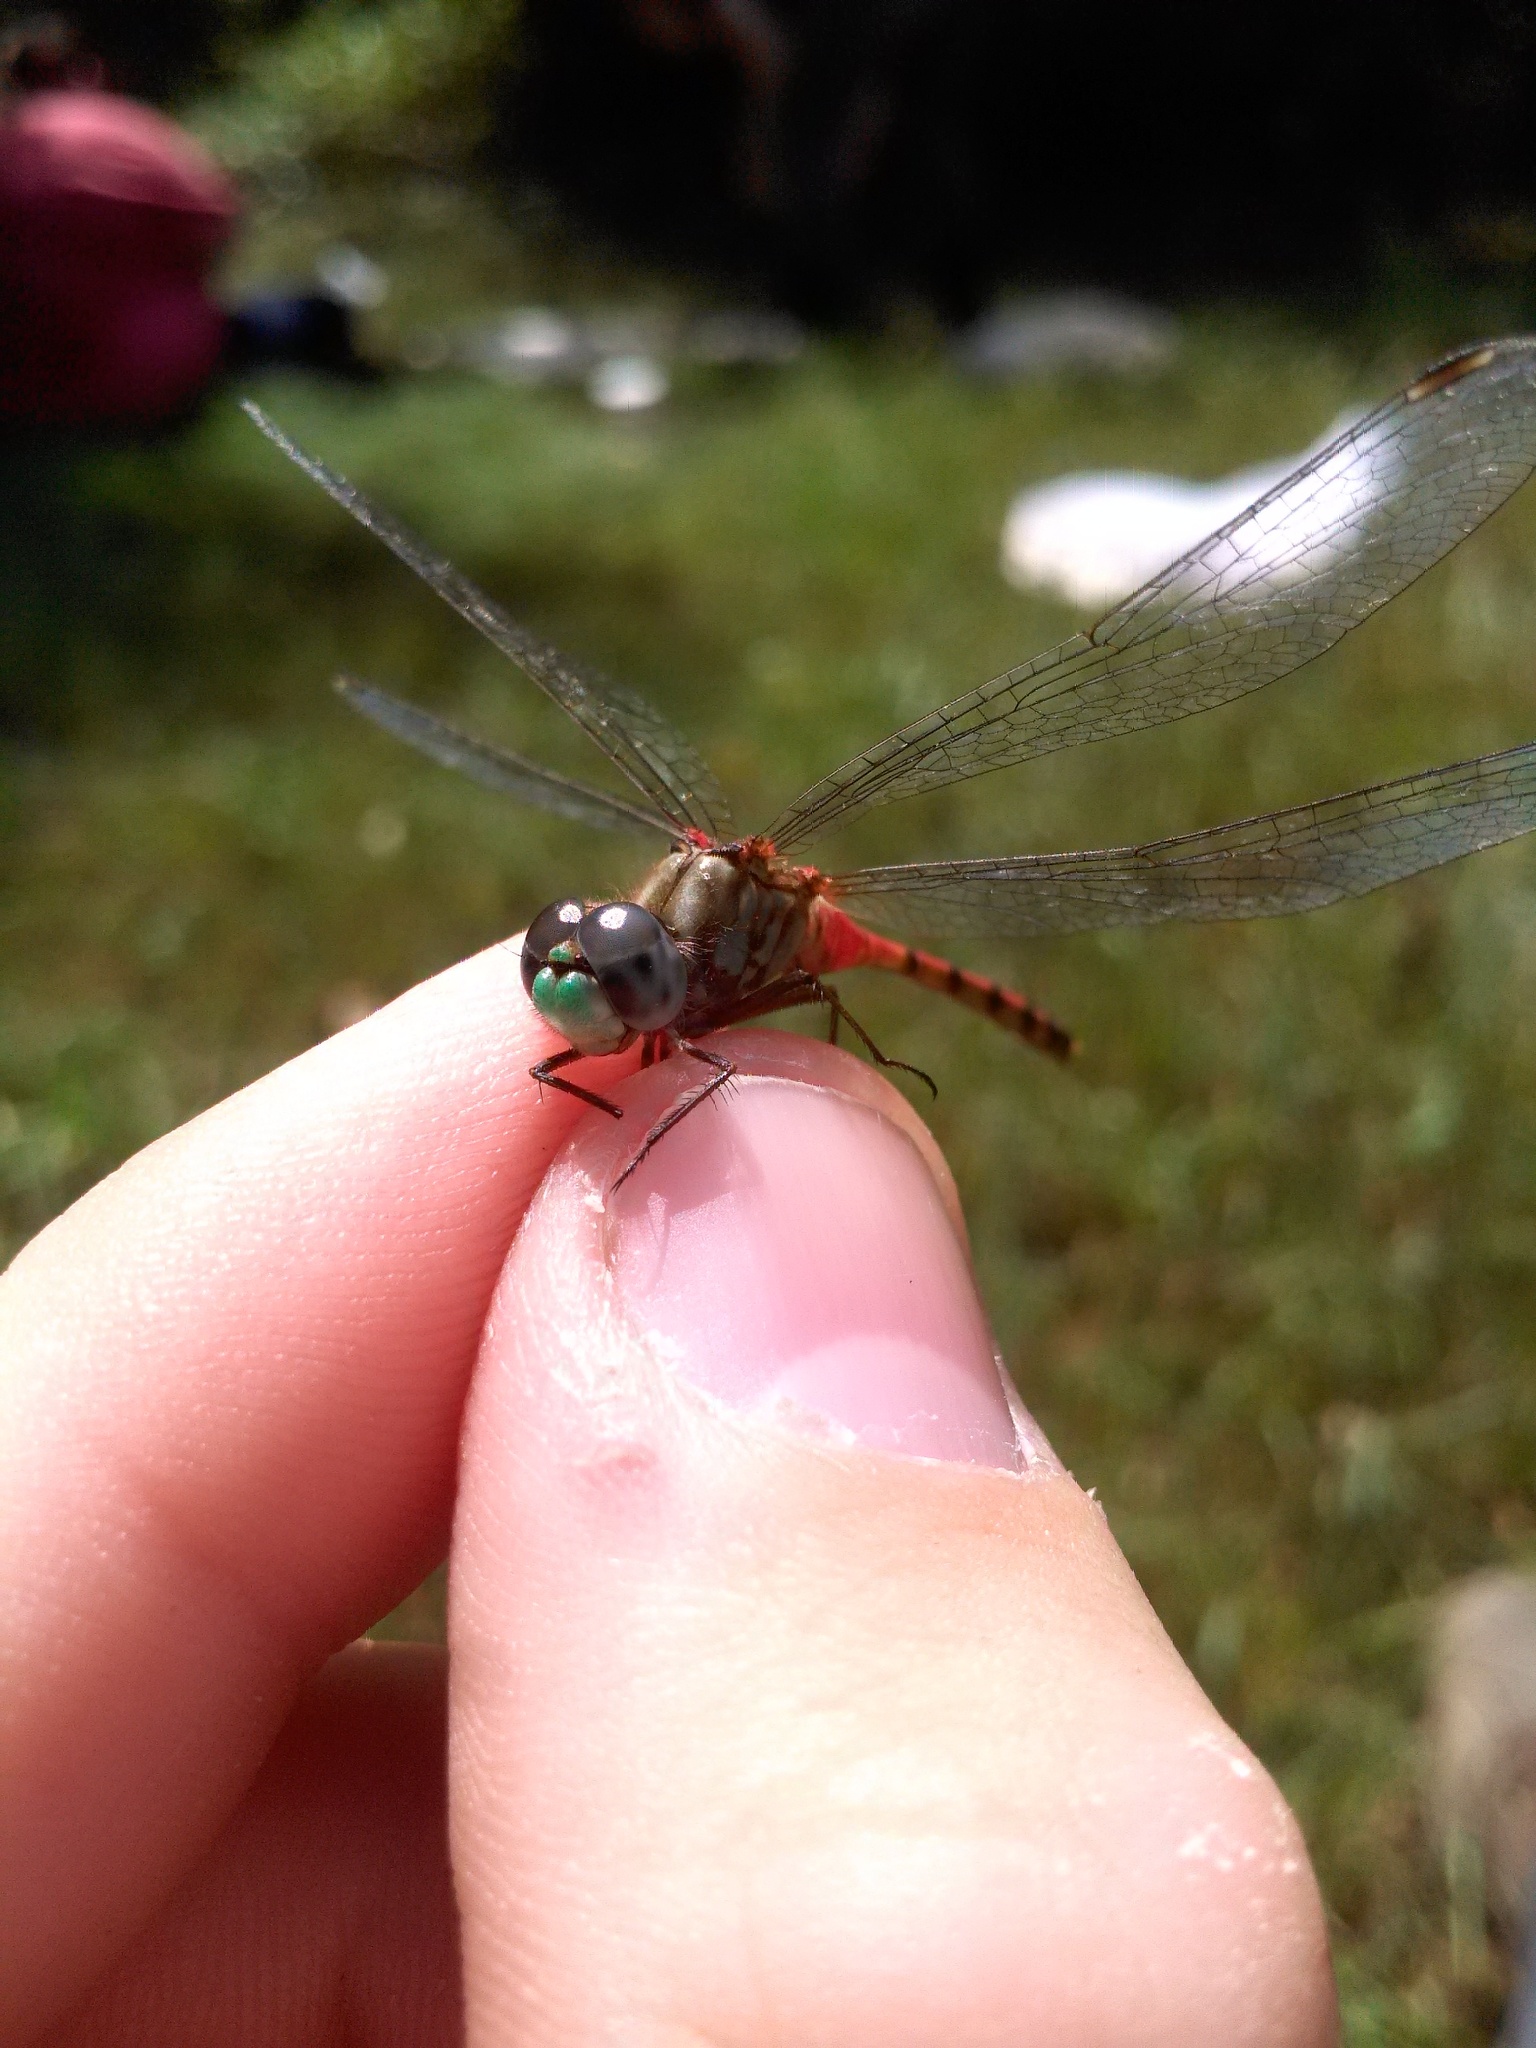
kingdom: Animalia
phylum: Arthropoda
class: Insecta
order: Odonata
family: Libellulidae
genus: Sympetrum
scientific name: Sympetrum ambiguum
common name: Blue-faced meadowhawk
